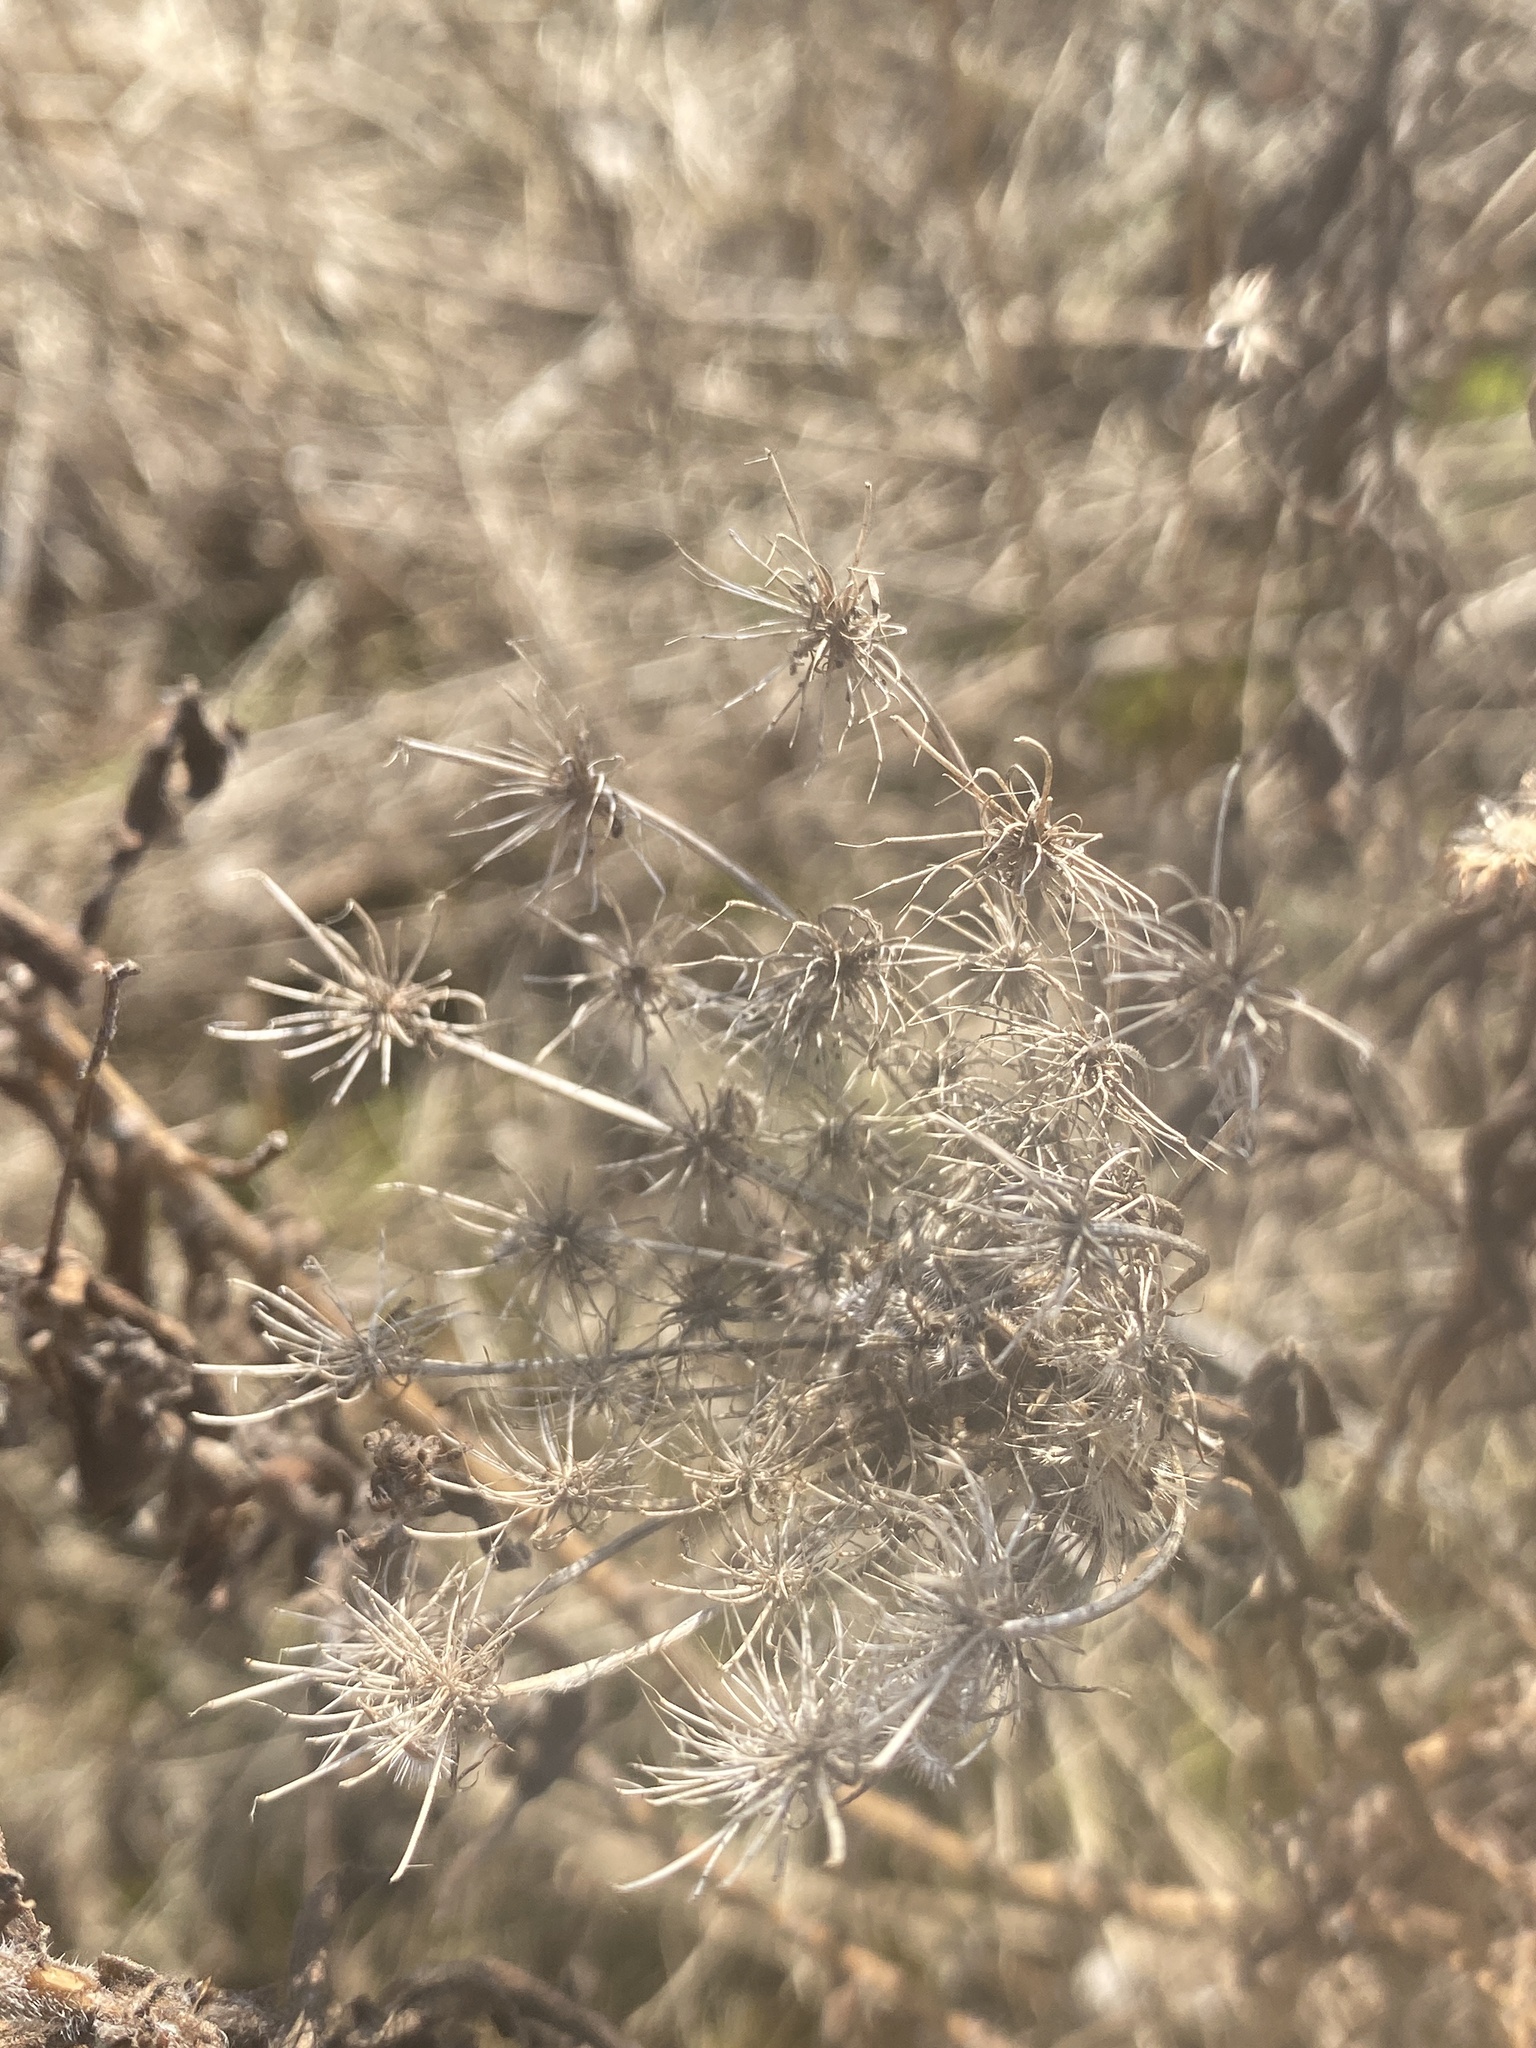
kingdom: Plantae
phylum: Tracheophyta
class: Magnoliopsida
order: Apiales
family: Apiaceae
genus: Daucus
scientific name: Daucus carota
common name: Wild carrot
